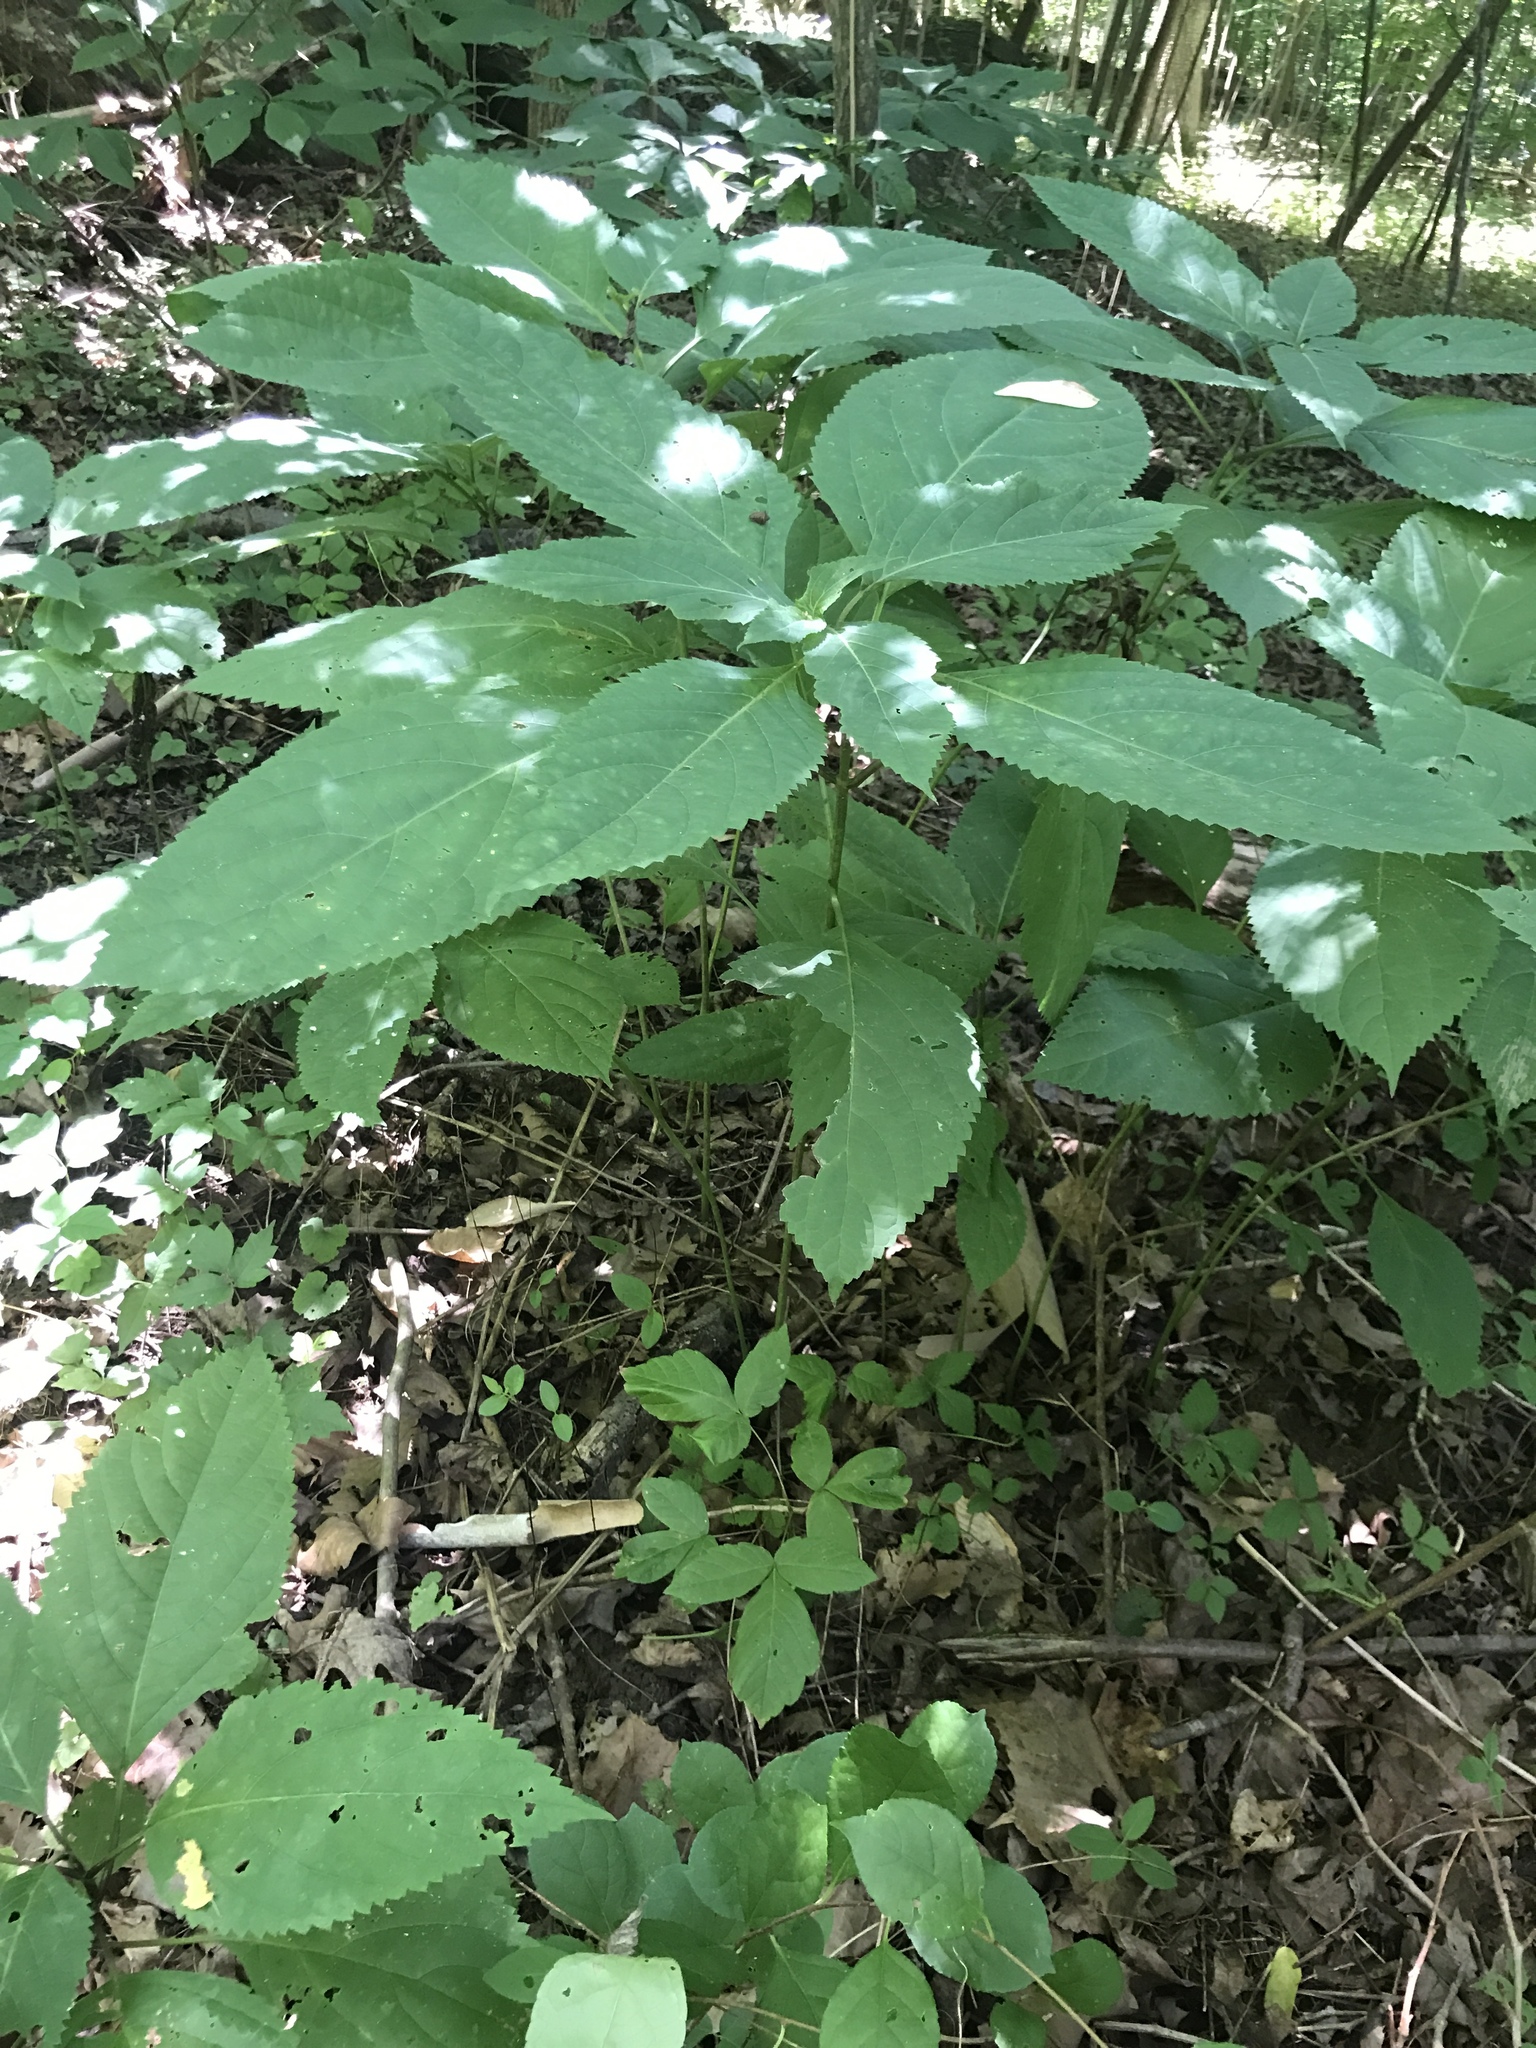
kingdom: Plantae
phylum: Tracheophyta
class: Magnoliopsida
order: Lamiales
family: Lamiaceae
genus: Collinsonia
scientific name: Collinsonia canadensis
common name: Northern horsebalm
